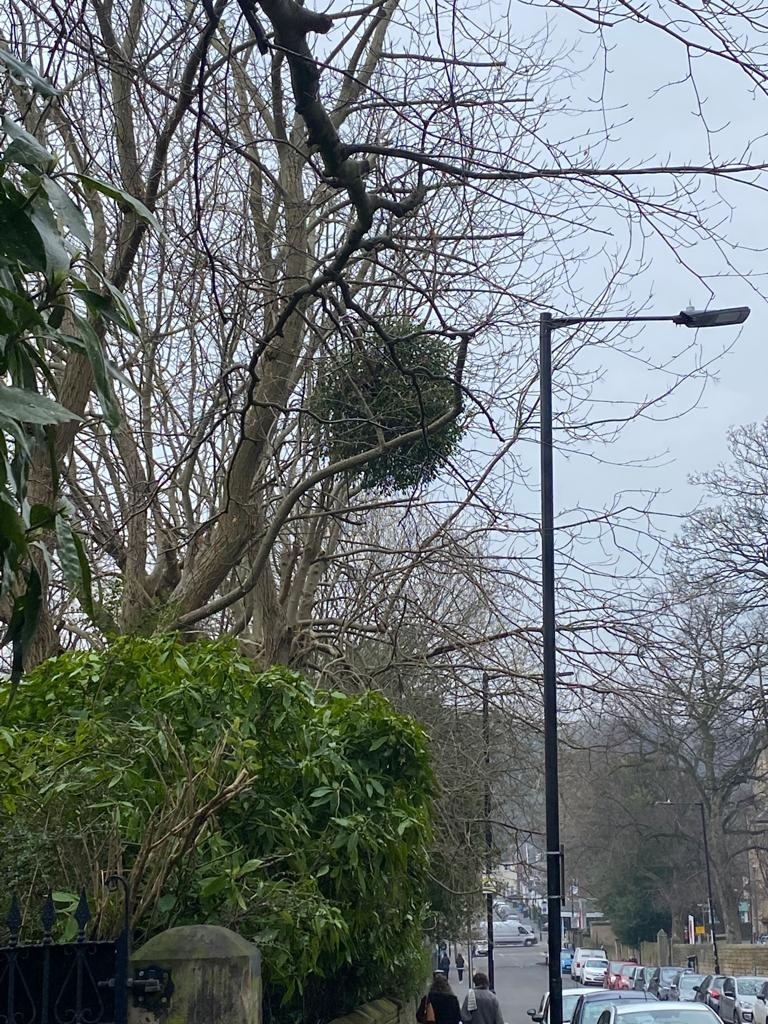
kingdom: Plantae
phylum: Tracheophyta
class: Magnoliopsida
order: Santalales
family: Viscaceae
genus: Viscum
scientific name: Viscum album
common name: Mistletoe
